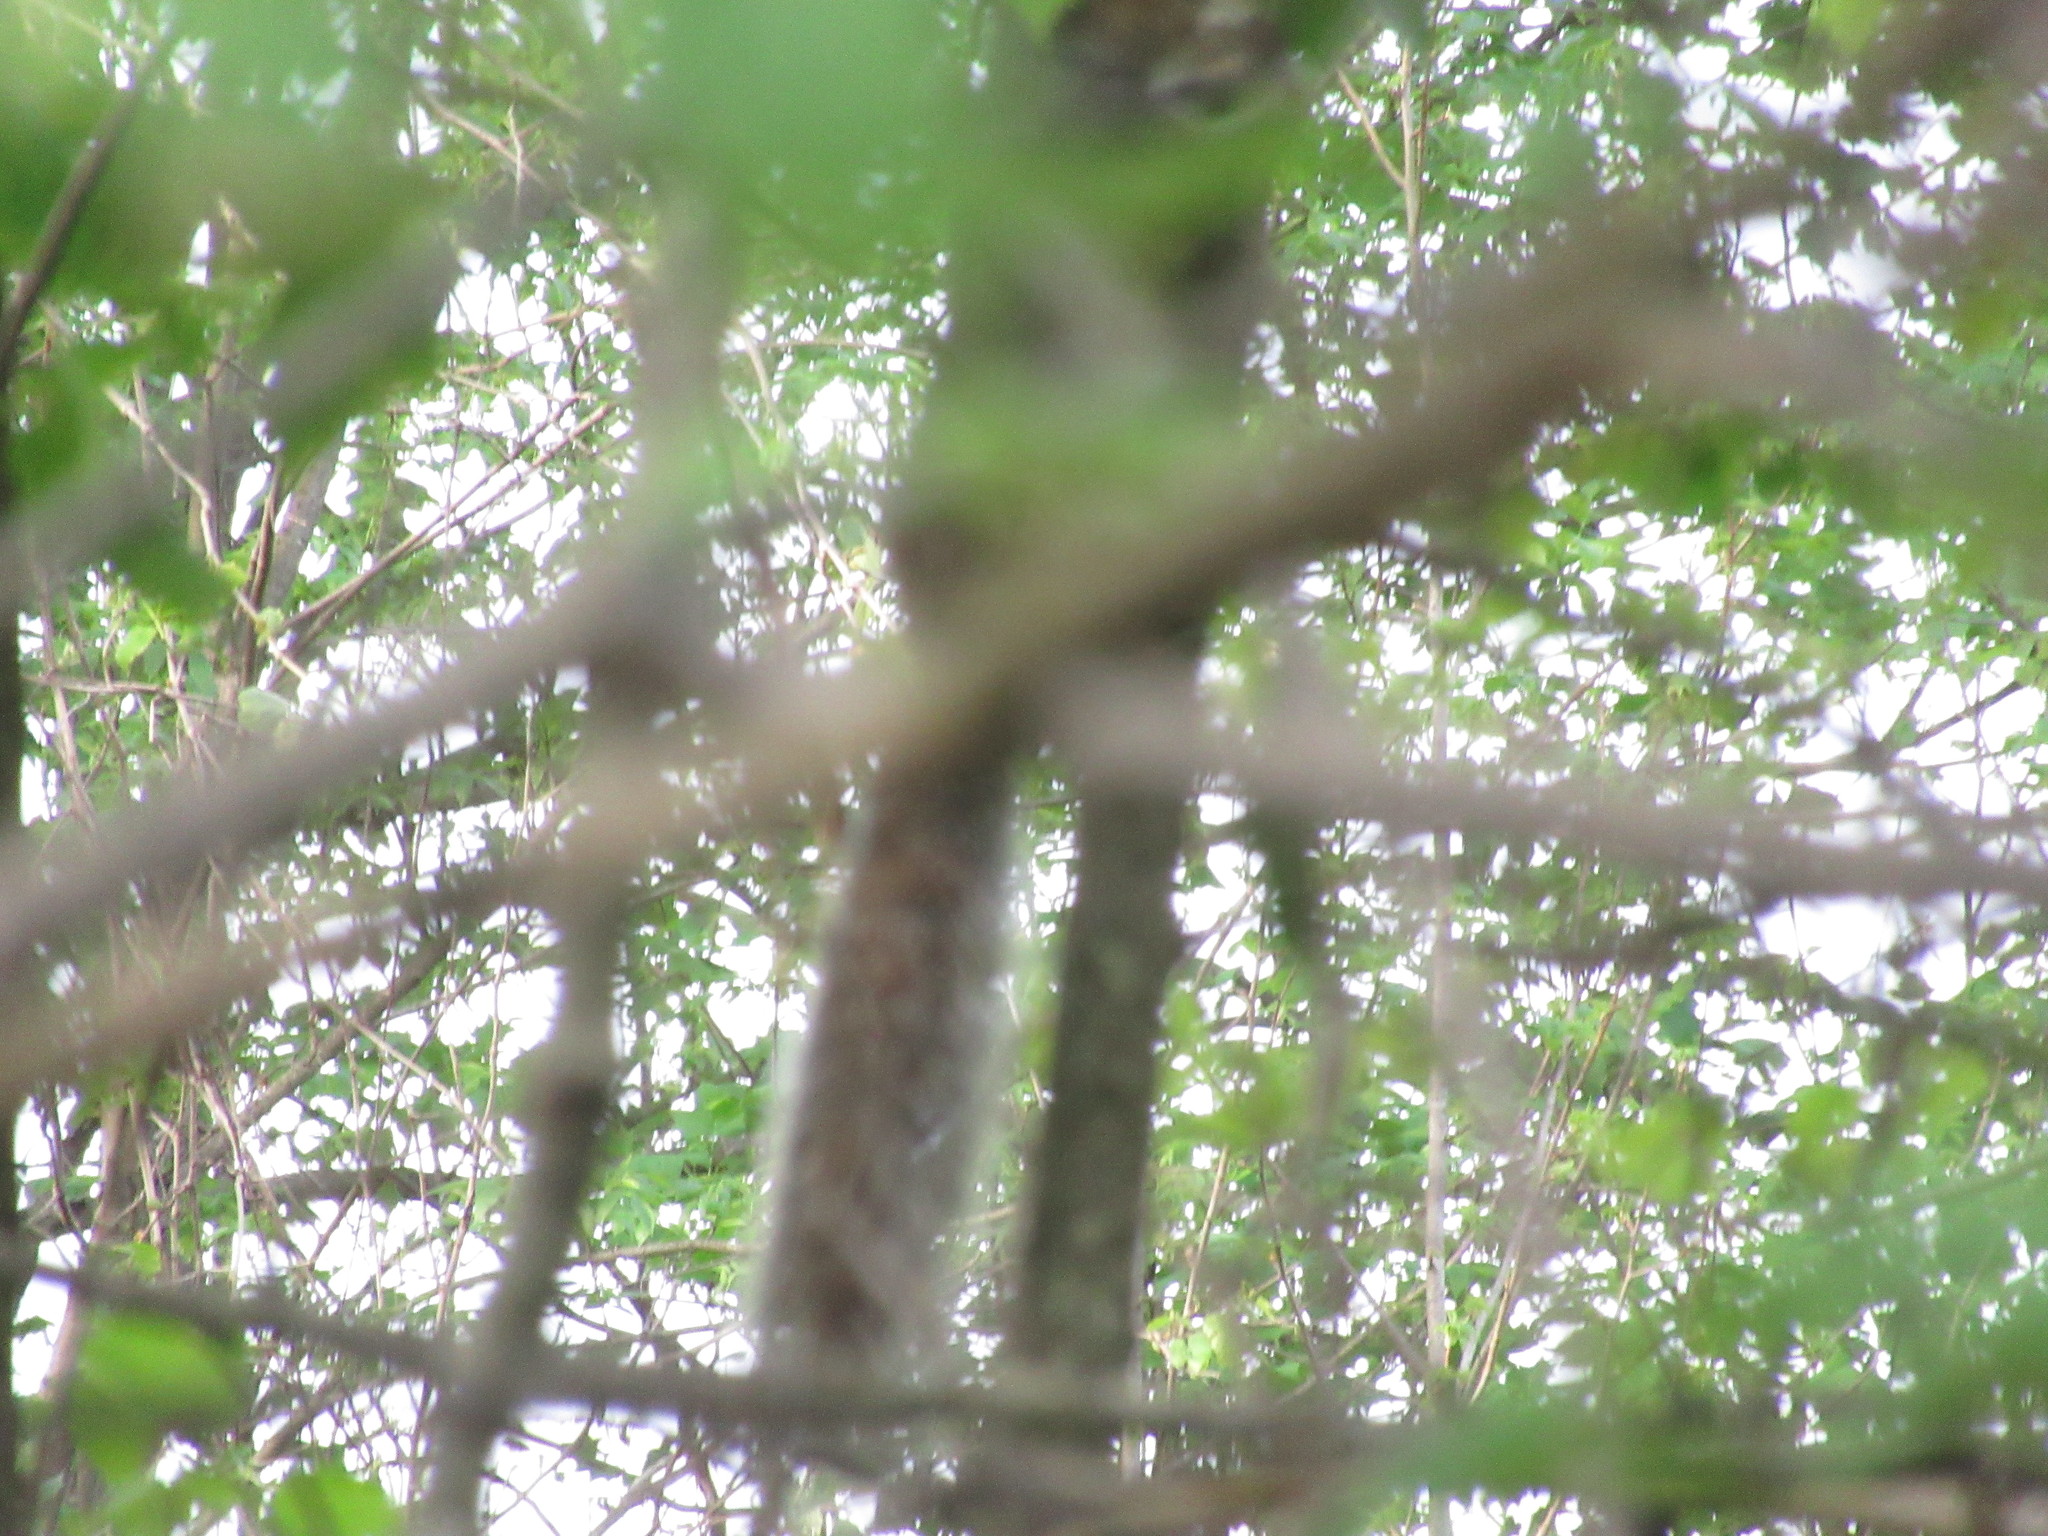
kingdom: Animalia
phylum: Chordata
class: Mammalia
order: Rodentia
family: Sciuridae
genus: Sciurus
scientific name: Sciurus carolinensis
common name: Eastern gray squirrel
